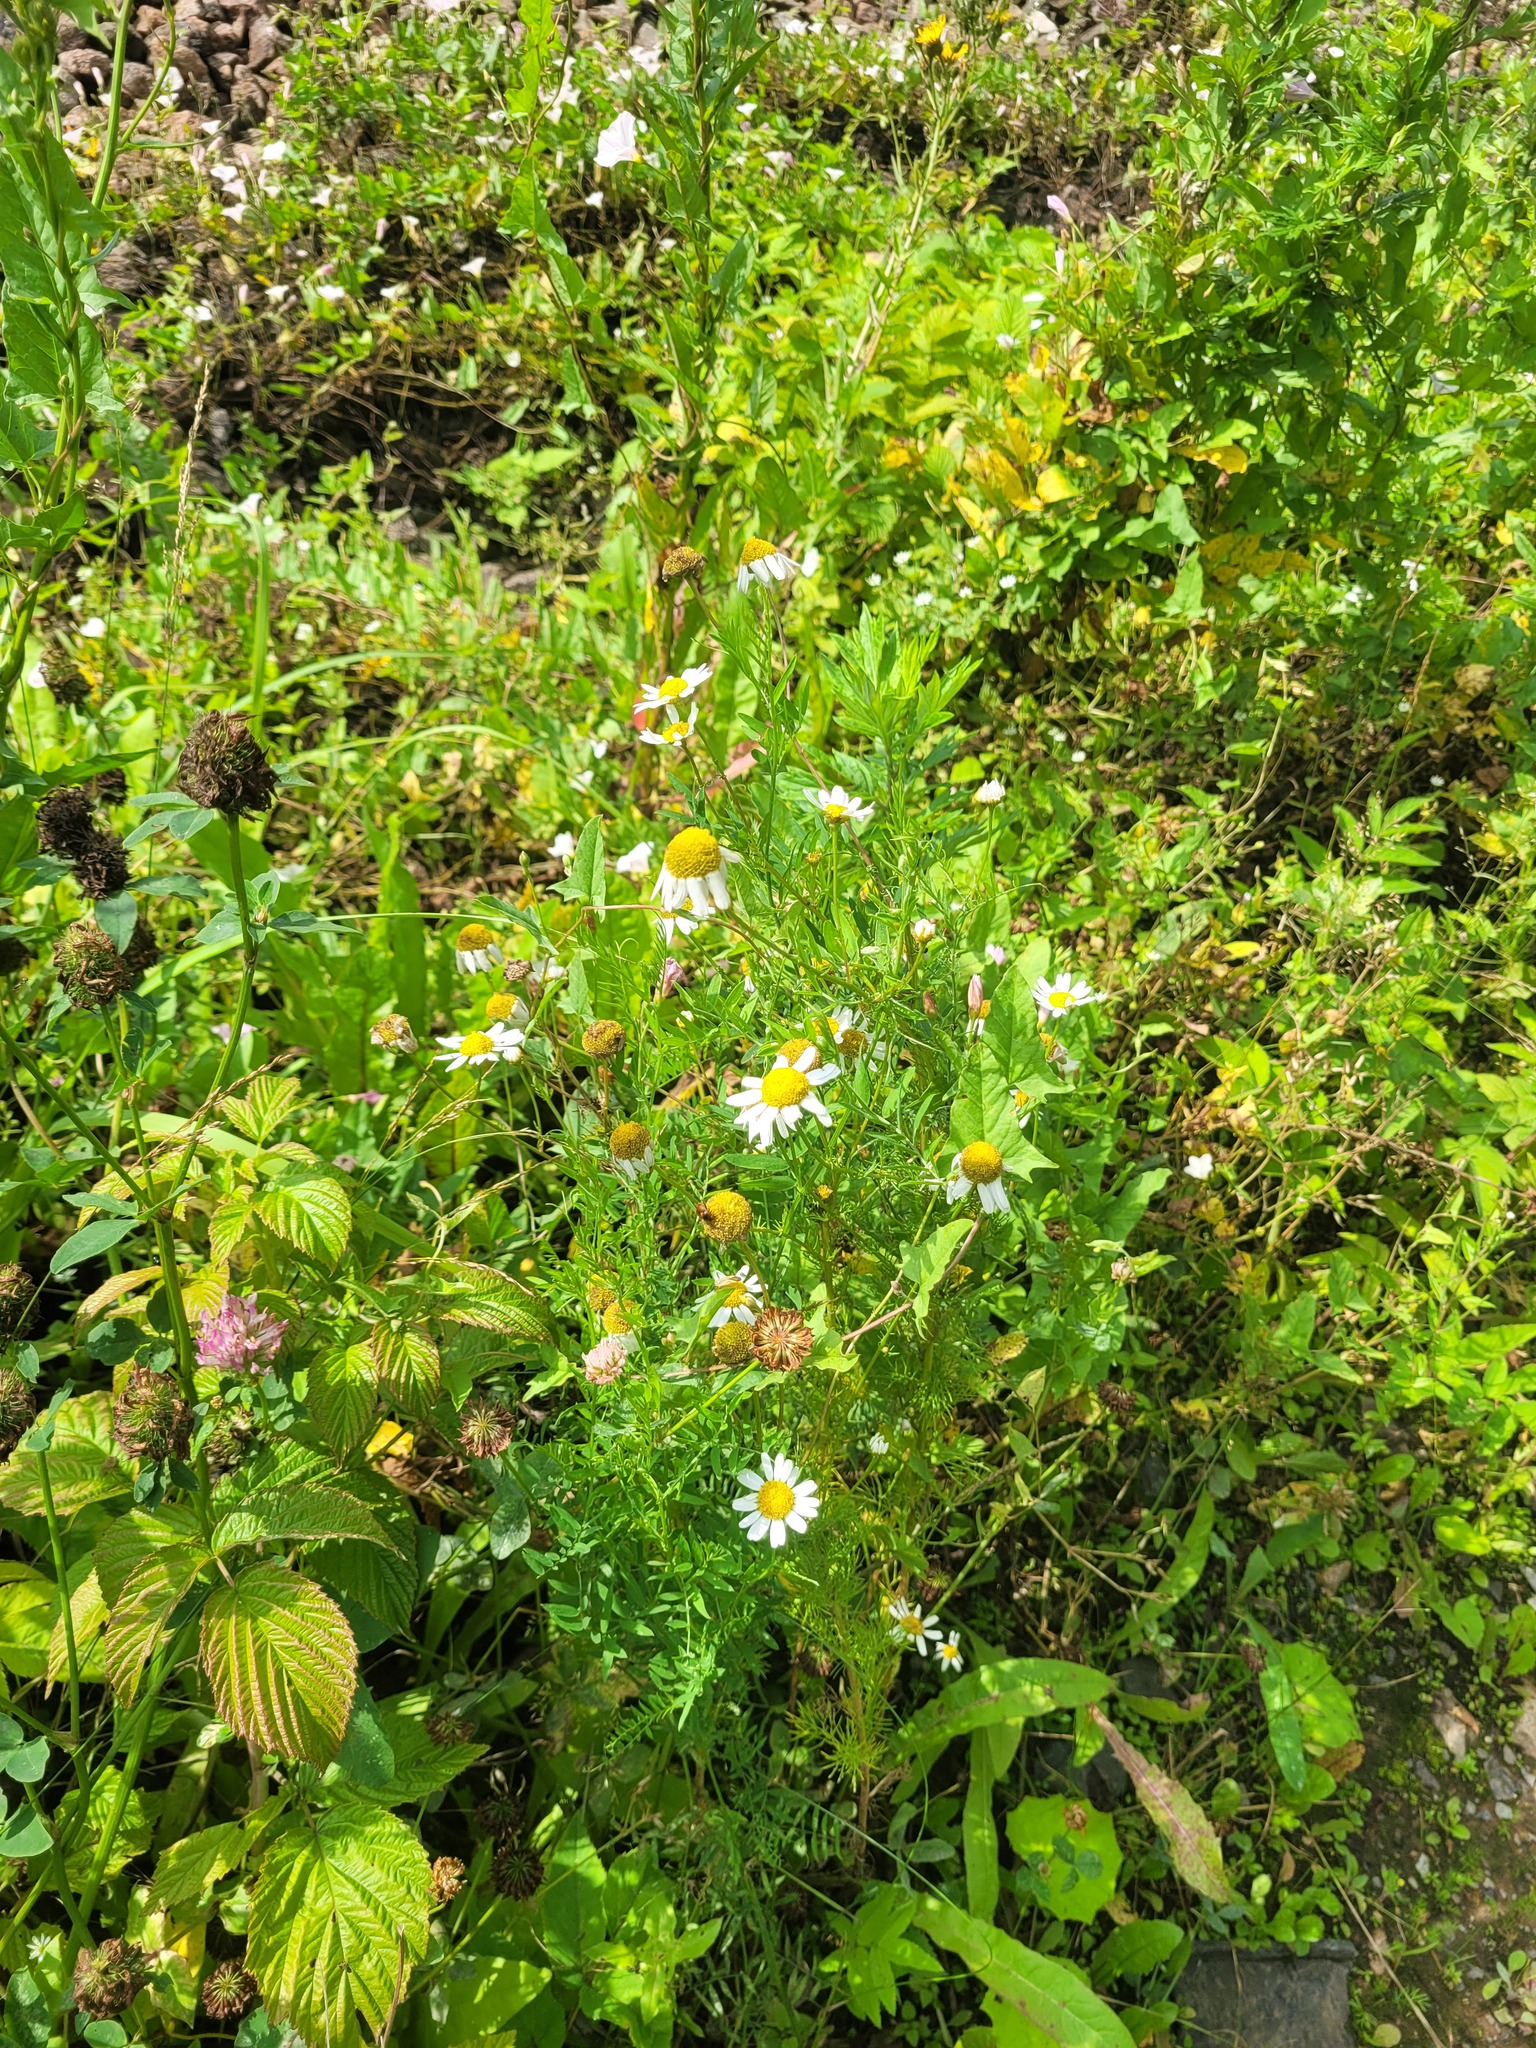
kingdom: Plantae
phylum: Tracheophyta
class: Magnoliopsida
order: Asterales
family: Asteraceae
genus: Tripleurospermum
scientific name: Tripleurospermum inodorum
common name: Scentless mayweed
